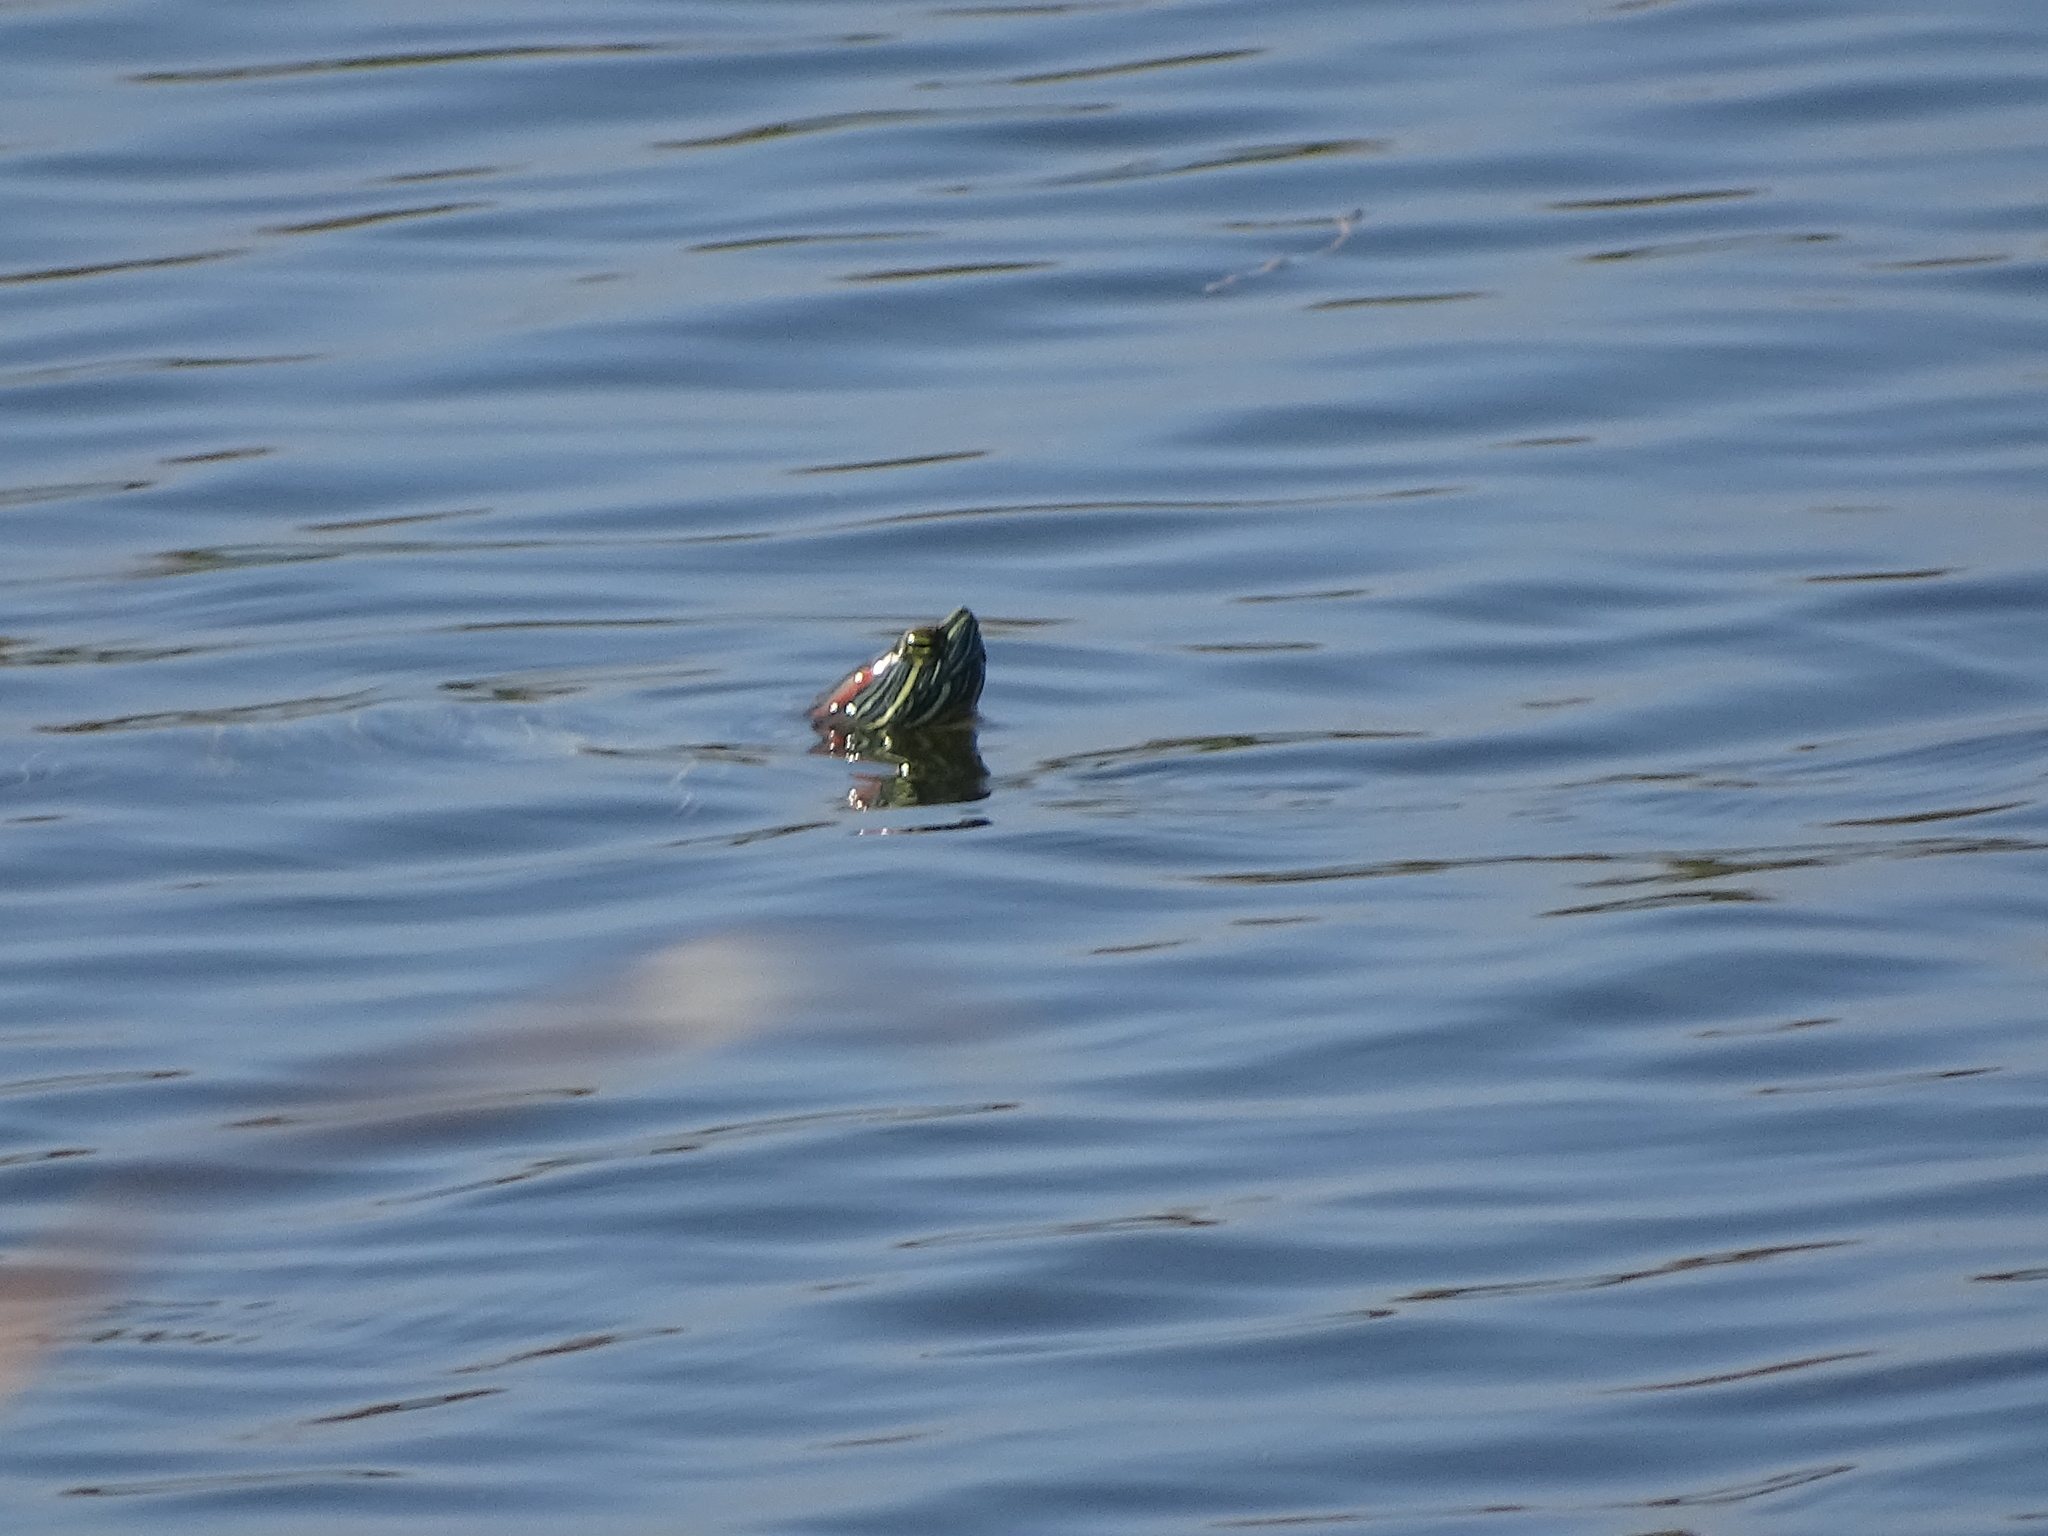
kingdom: Animalia
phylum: Chordata
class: Testudines
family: Emydidae
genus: Trachemys
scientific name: Trachemys scripta
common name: Slider
